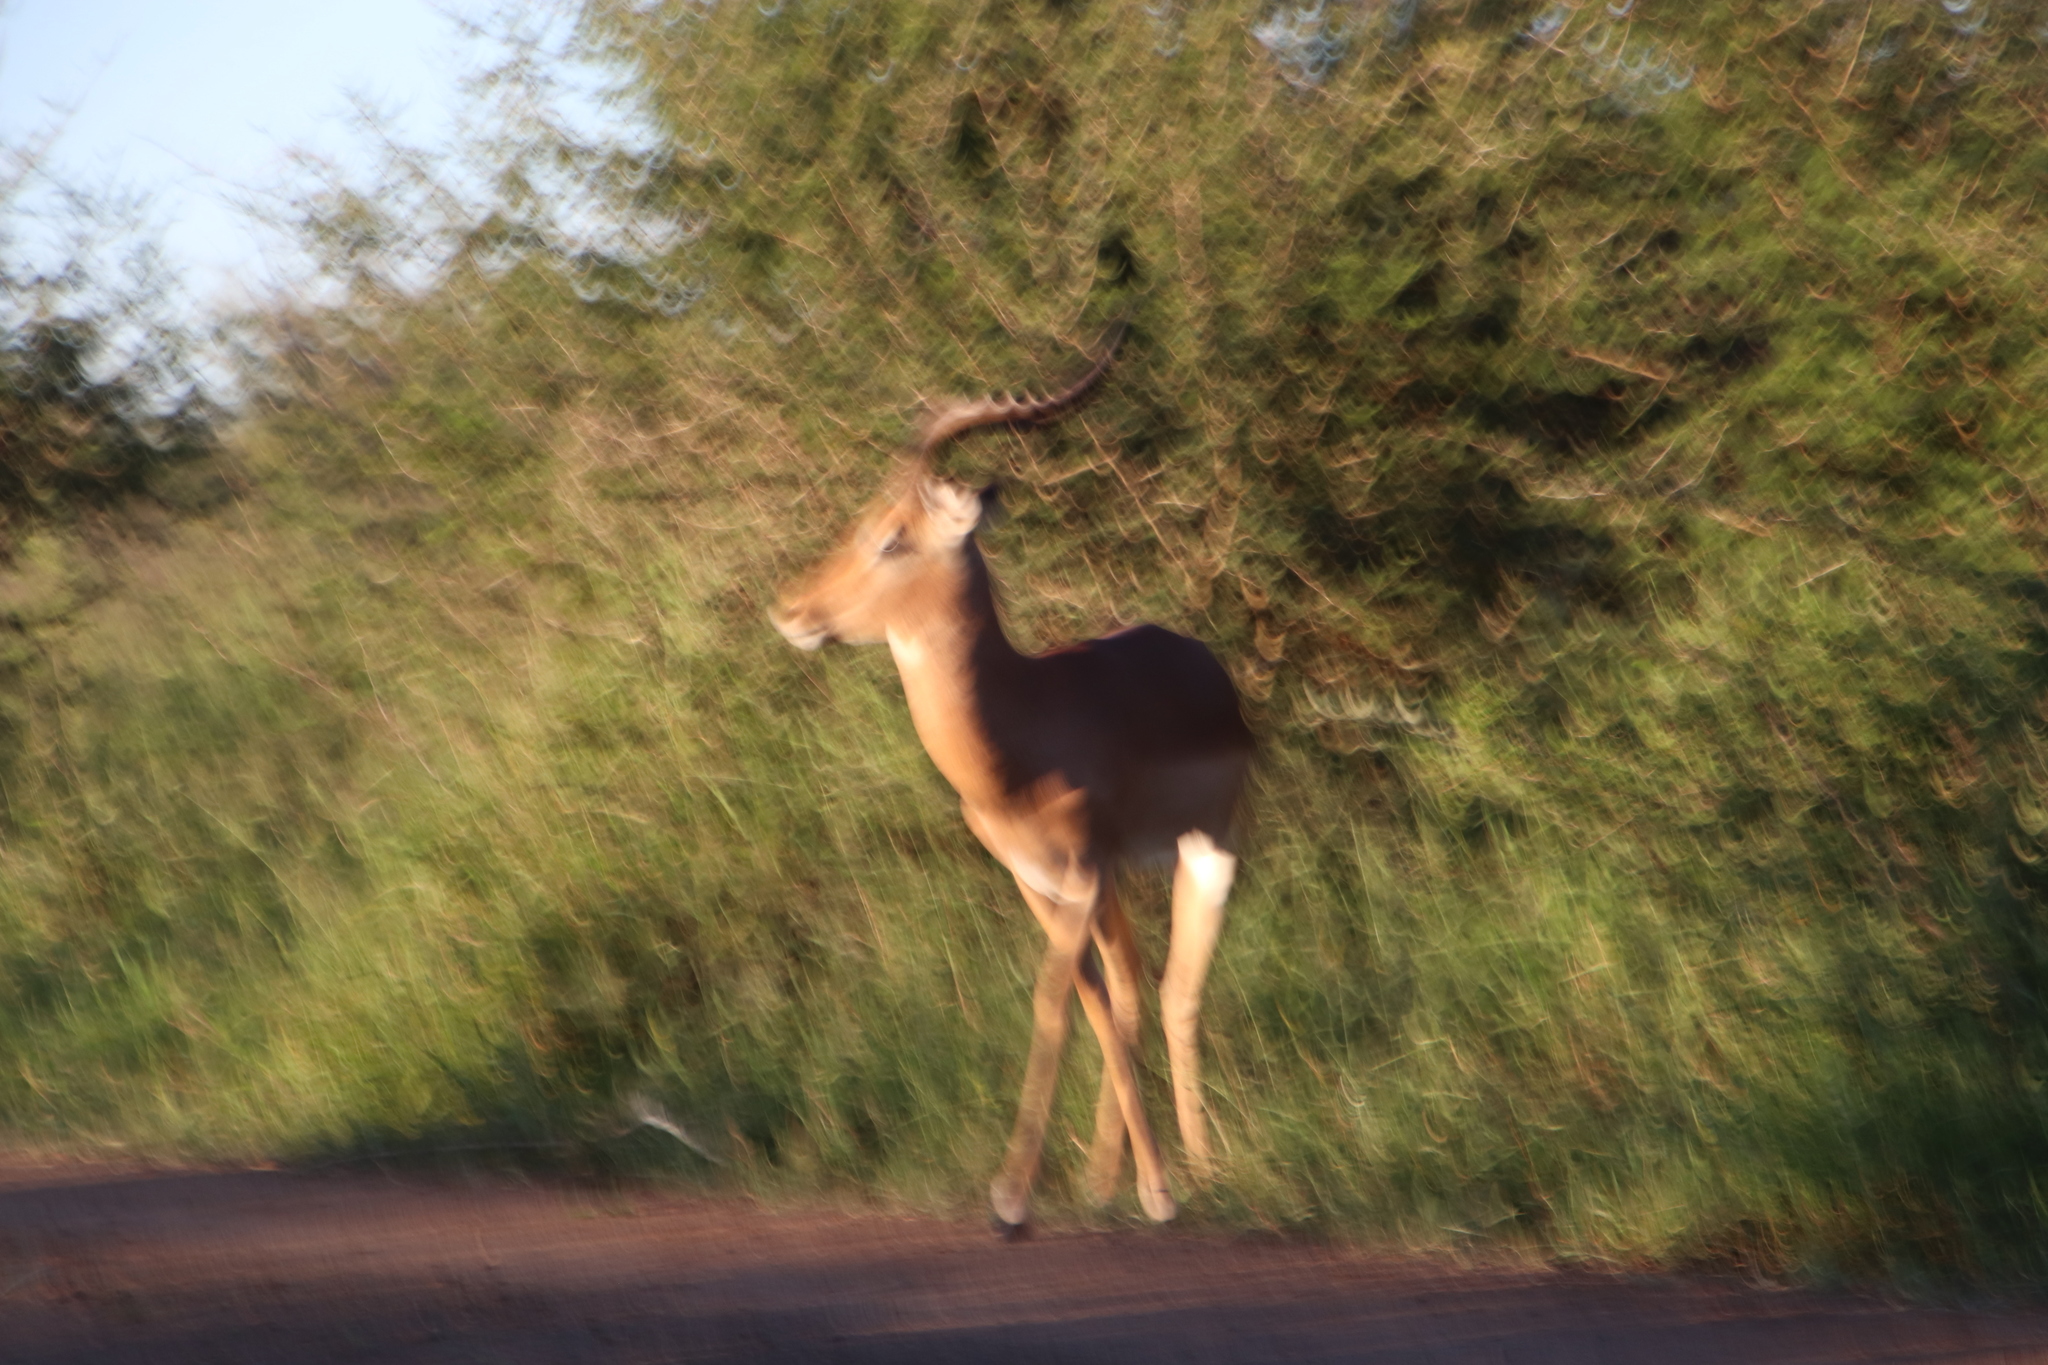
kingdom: Animalia
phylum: Chordata
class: Mammalia
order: Artiodactyla
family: Bovidae
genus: Aepyceros
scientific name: Aepyceros melampus
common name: Impala
